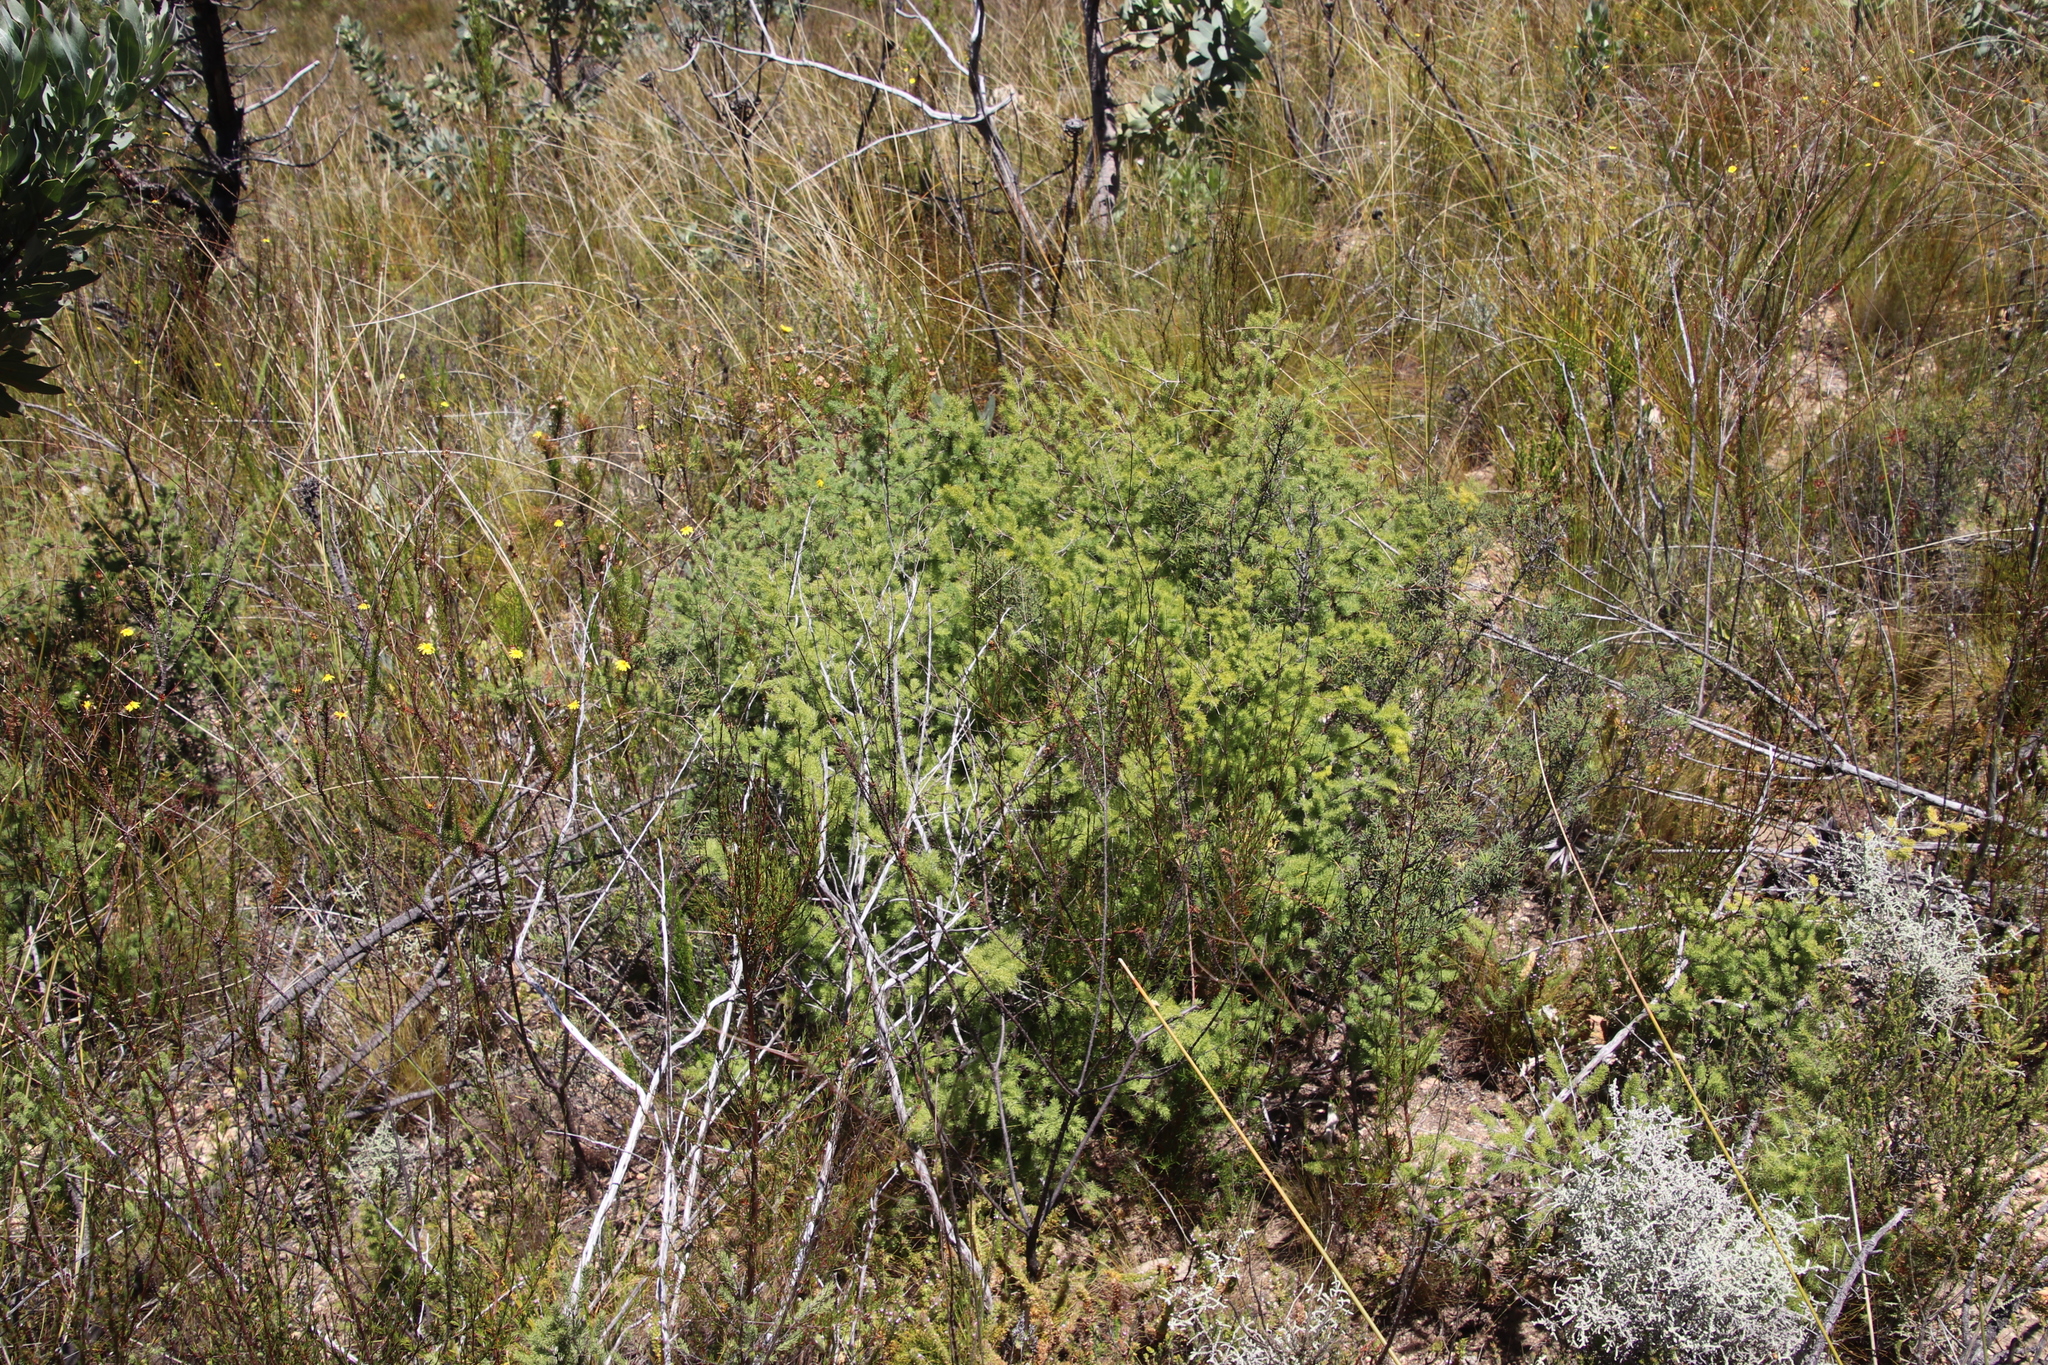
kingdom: Plantae
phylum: Tracheophyta
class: Liliopsida
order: Asparagales
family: Asparagaceae
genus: Asparagus
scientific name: Asparagus rubicundus
